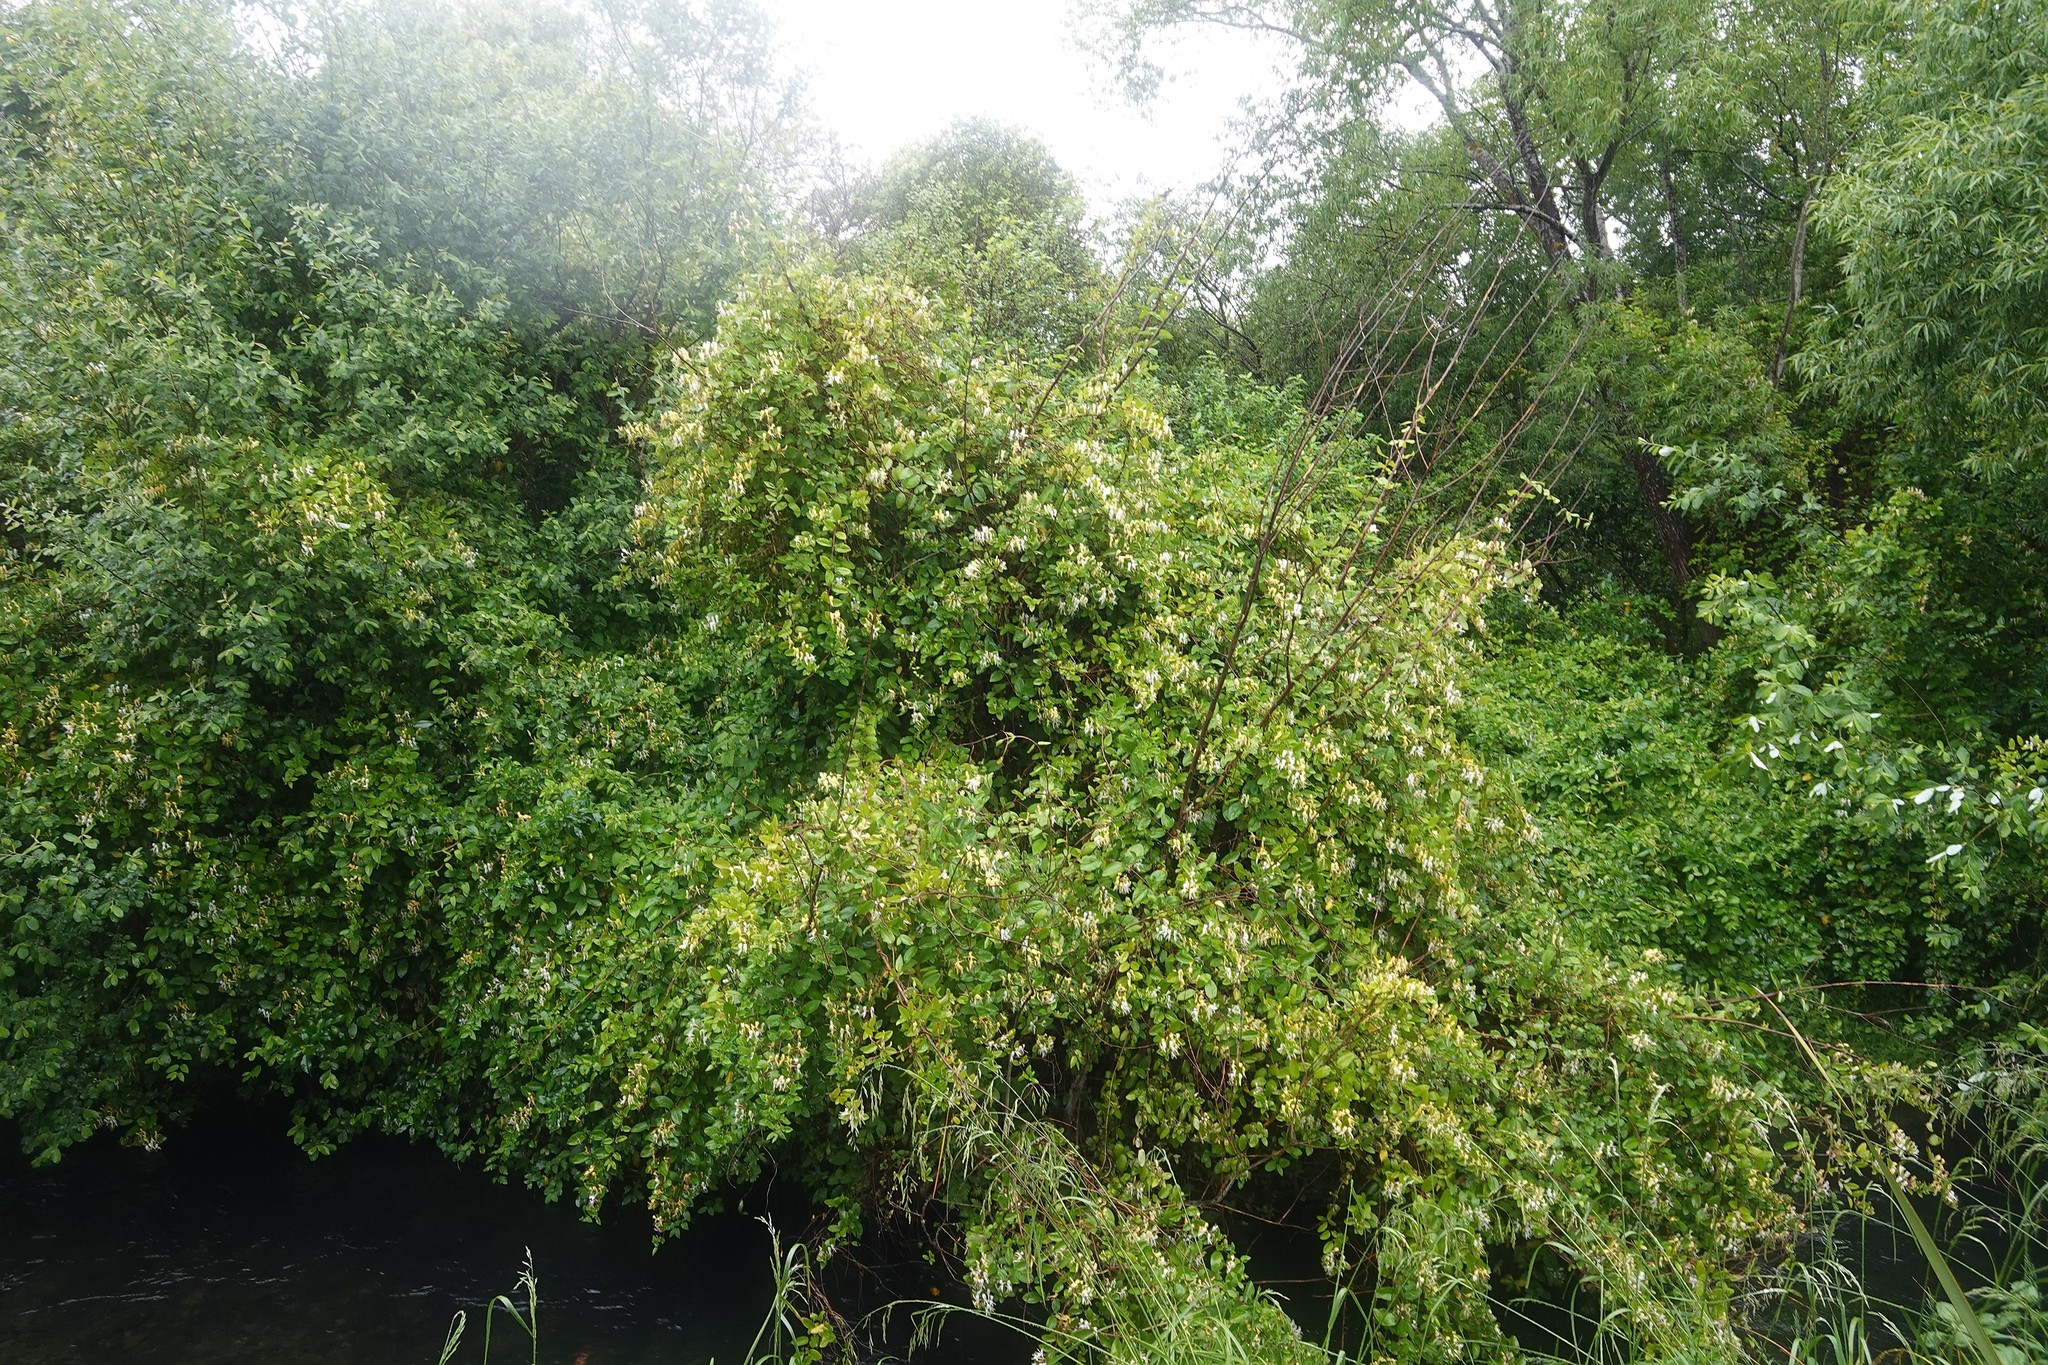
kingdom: Plantae
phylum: Tracheophyta
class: Magnoliopsida
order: Dipsacales
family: Caprifoliaceae
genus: Lonicera
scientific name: Lonicera japonica
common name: Japanese honeysuckle
